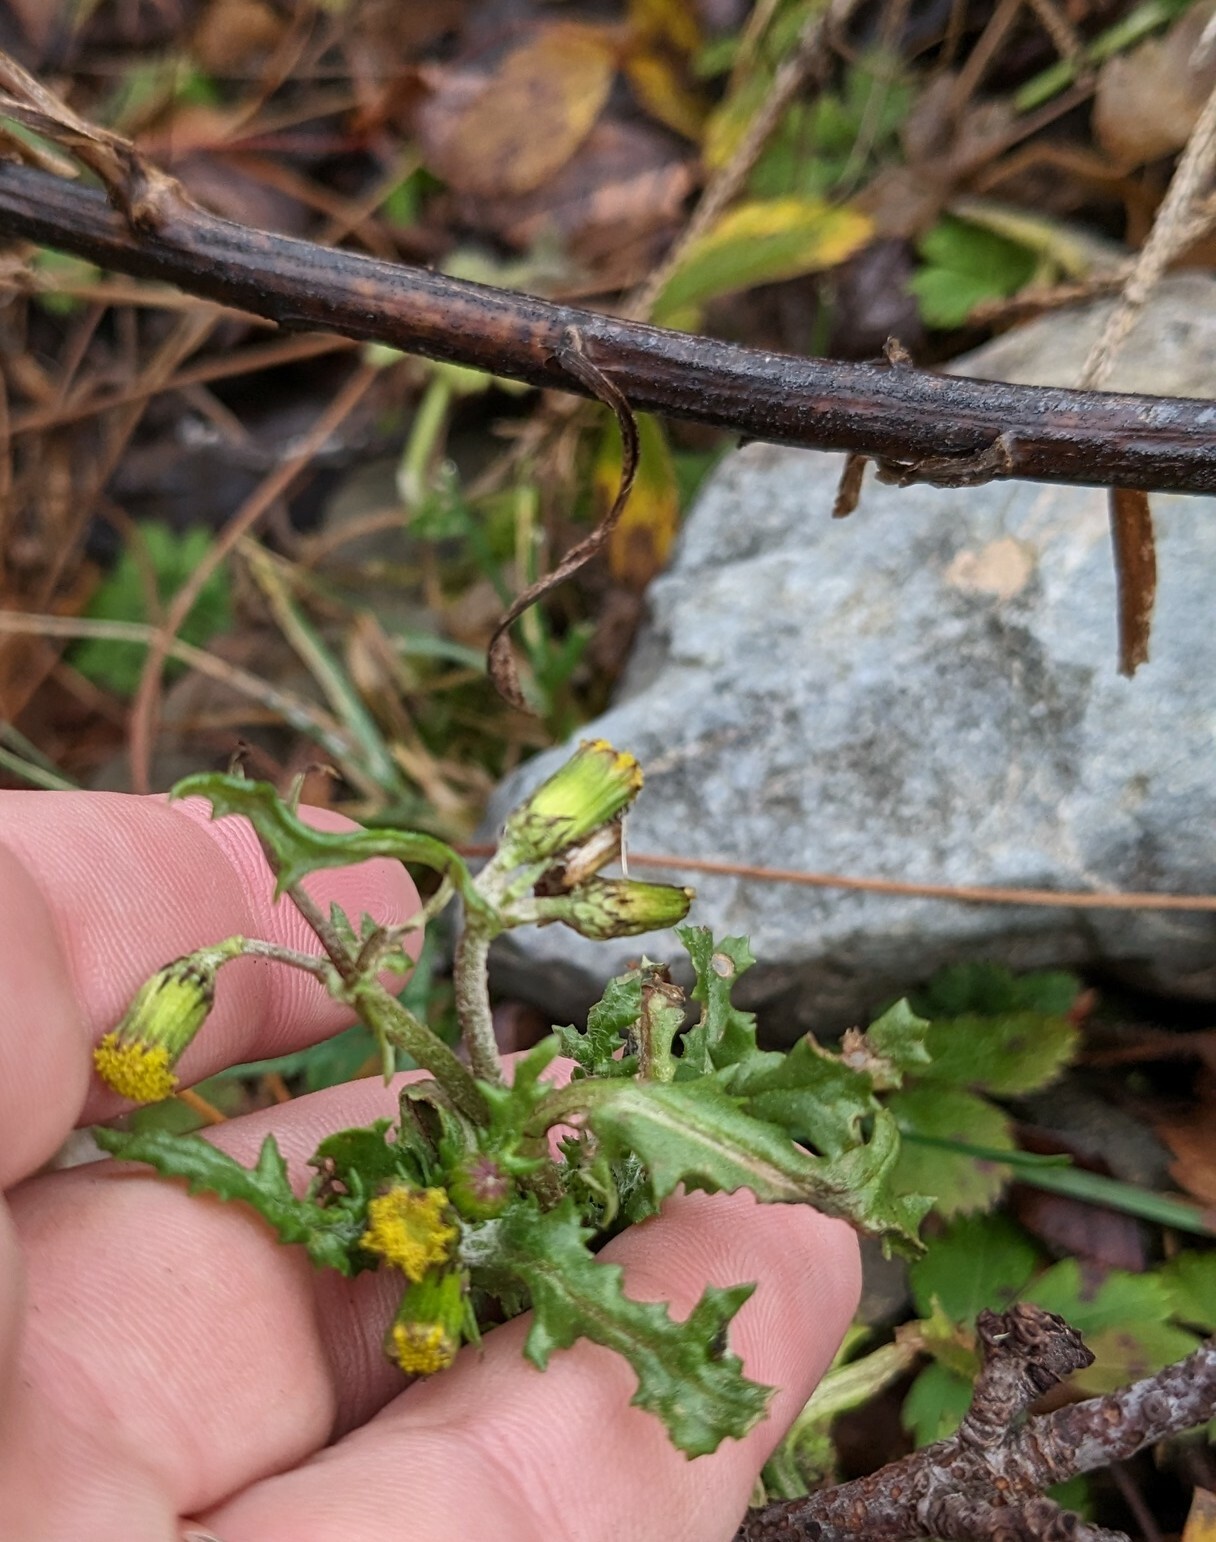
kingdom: Plantae
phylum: Tracheophyta
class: Magnoliopsida
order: Asterales
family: Asteraceae
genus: Senecio
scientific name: Senecio vulgaris
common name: Old-man-in-the-spring
